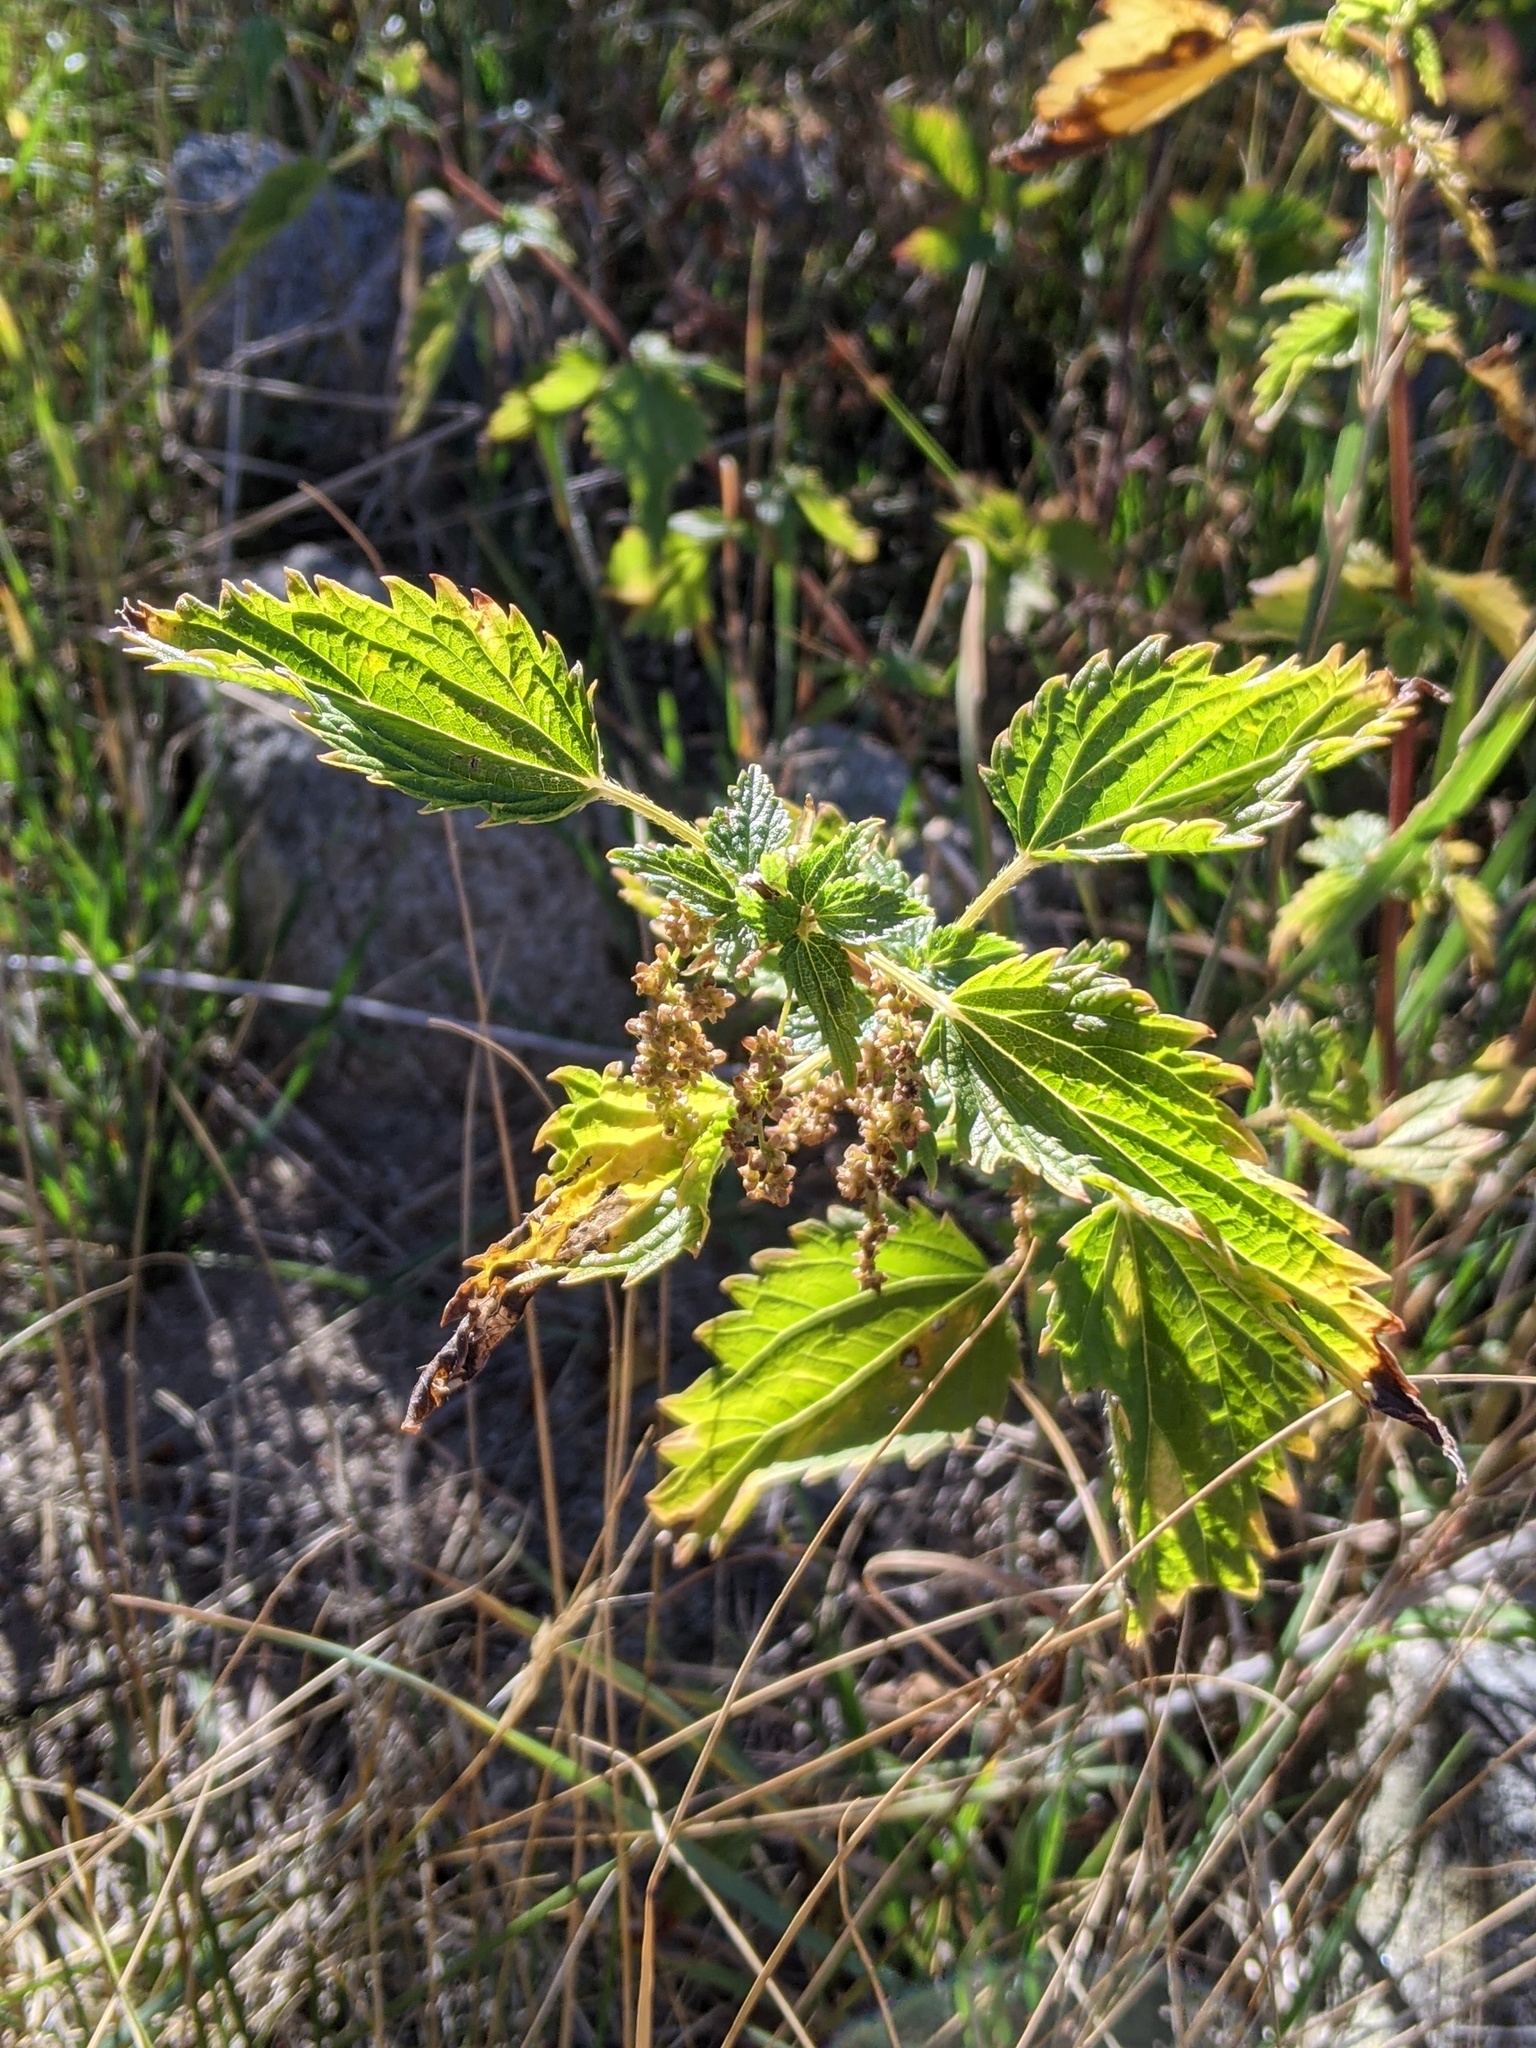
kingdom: Plantae
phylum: Tracheophyta
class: Magnoliopsida
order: Rosales
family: Urticaceae
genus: Urtica
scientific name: Urtica gracilis
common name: Slender stinging nettle
